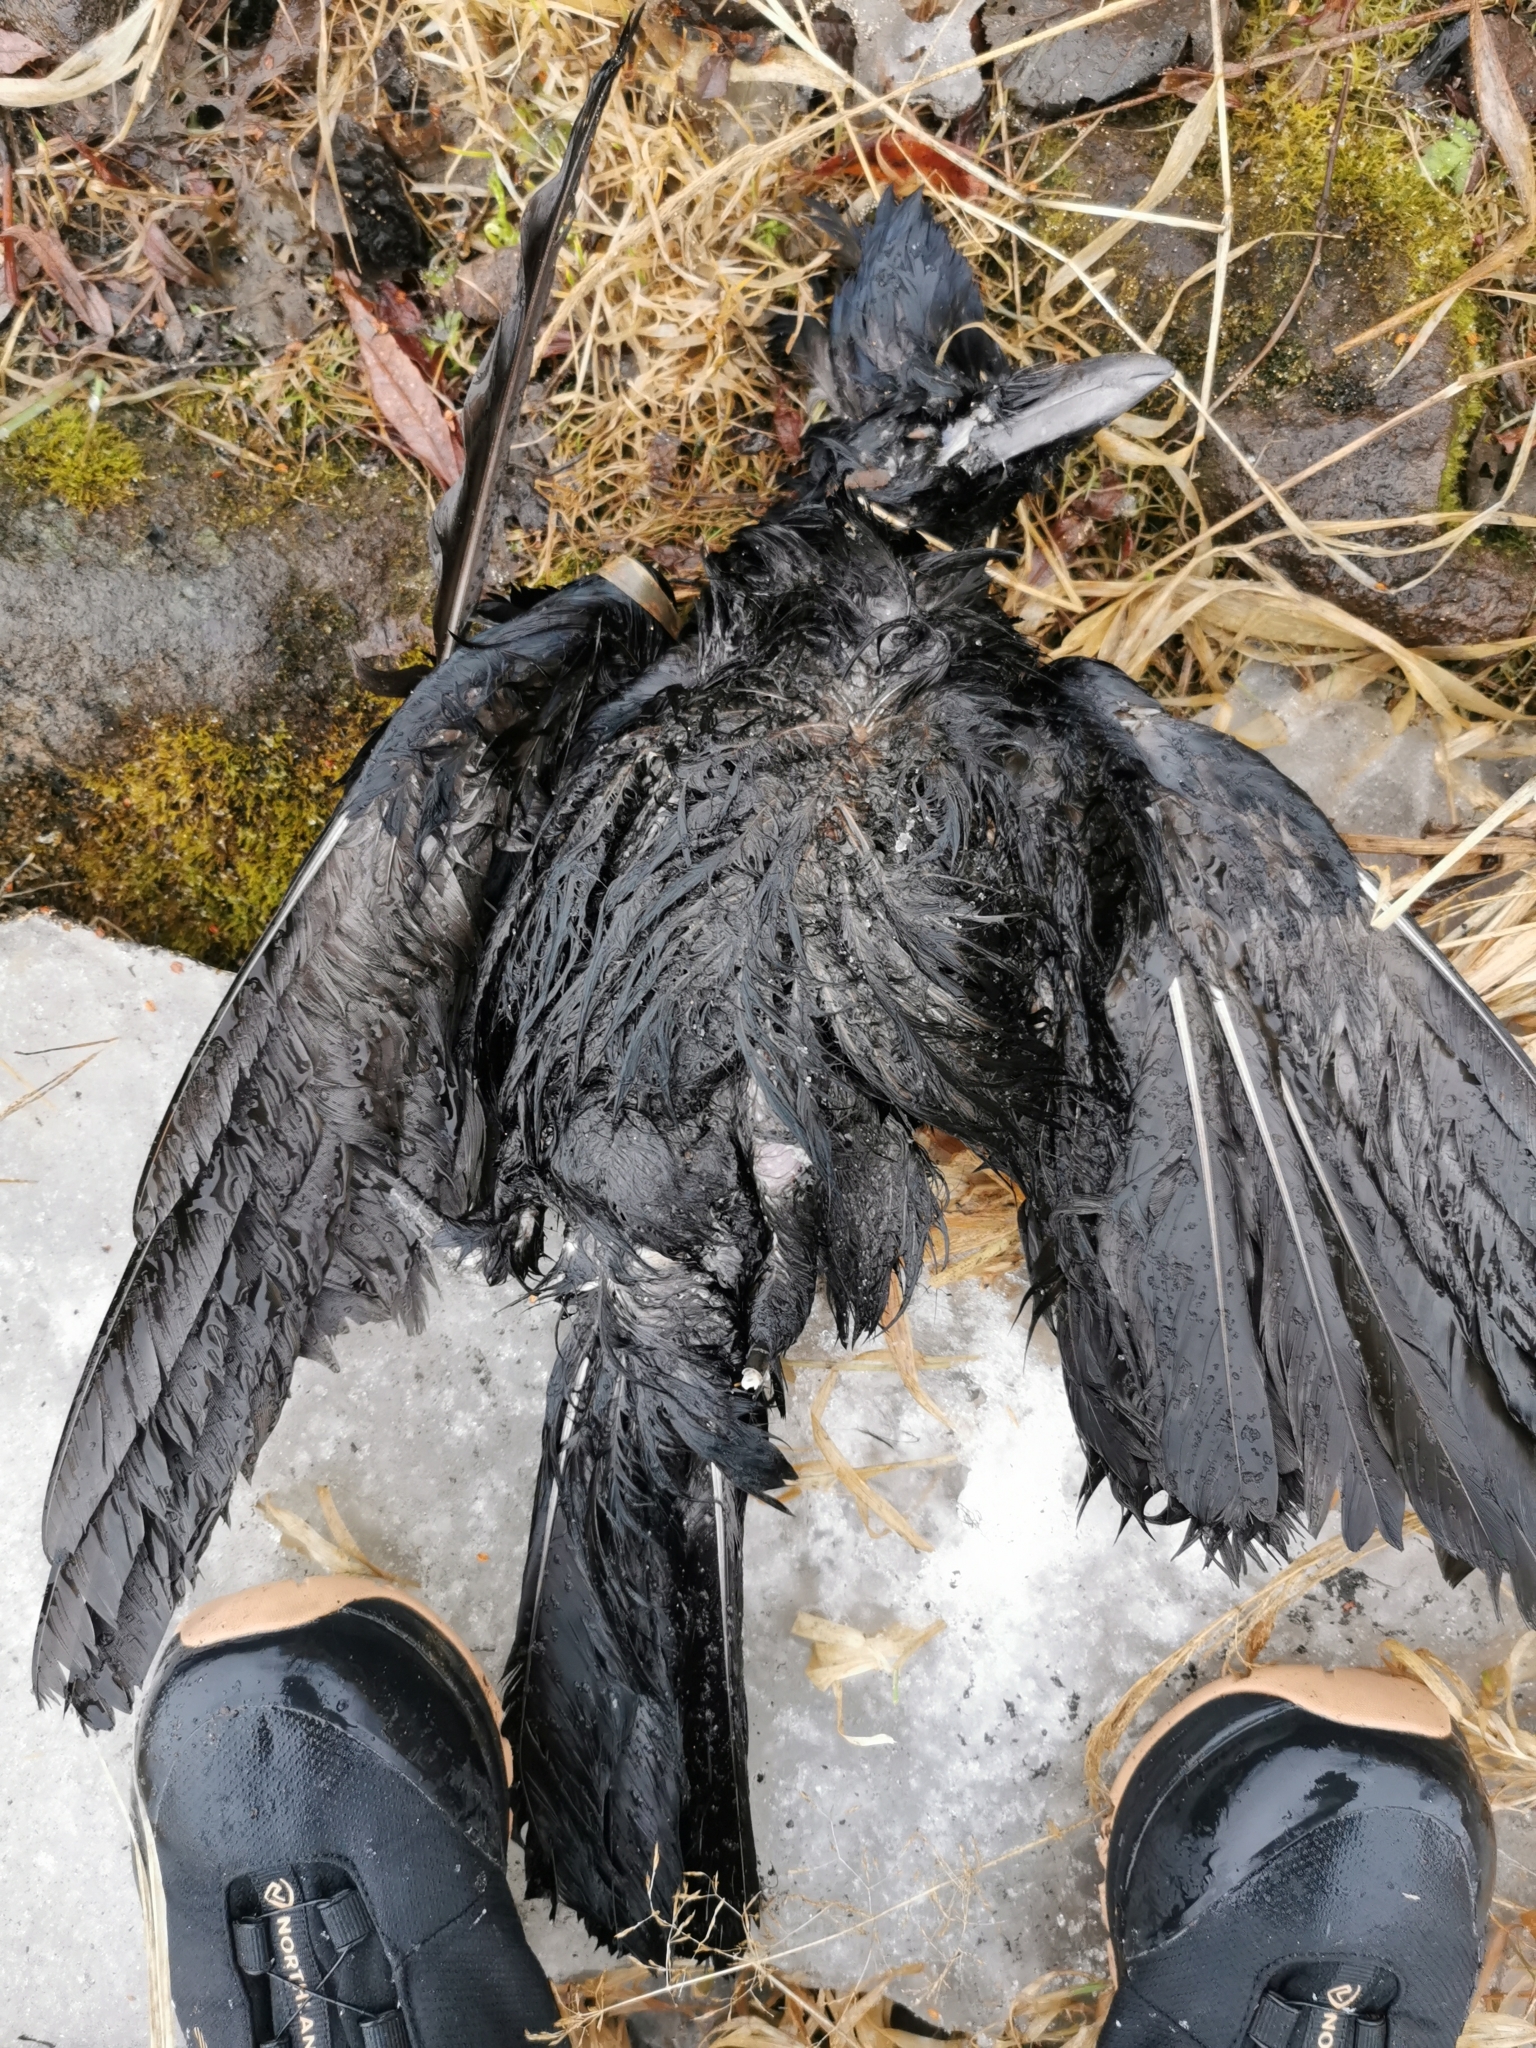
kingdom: Animalia
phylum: Chordata
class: Aves
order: Passeriformes
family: Corvidae
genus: Corvus
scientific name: Corvus corone
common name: Carrion crow
